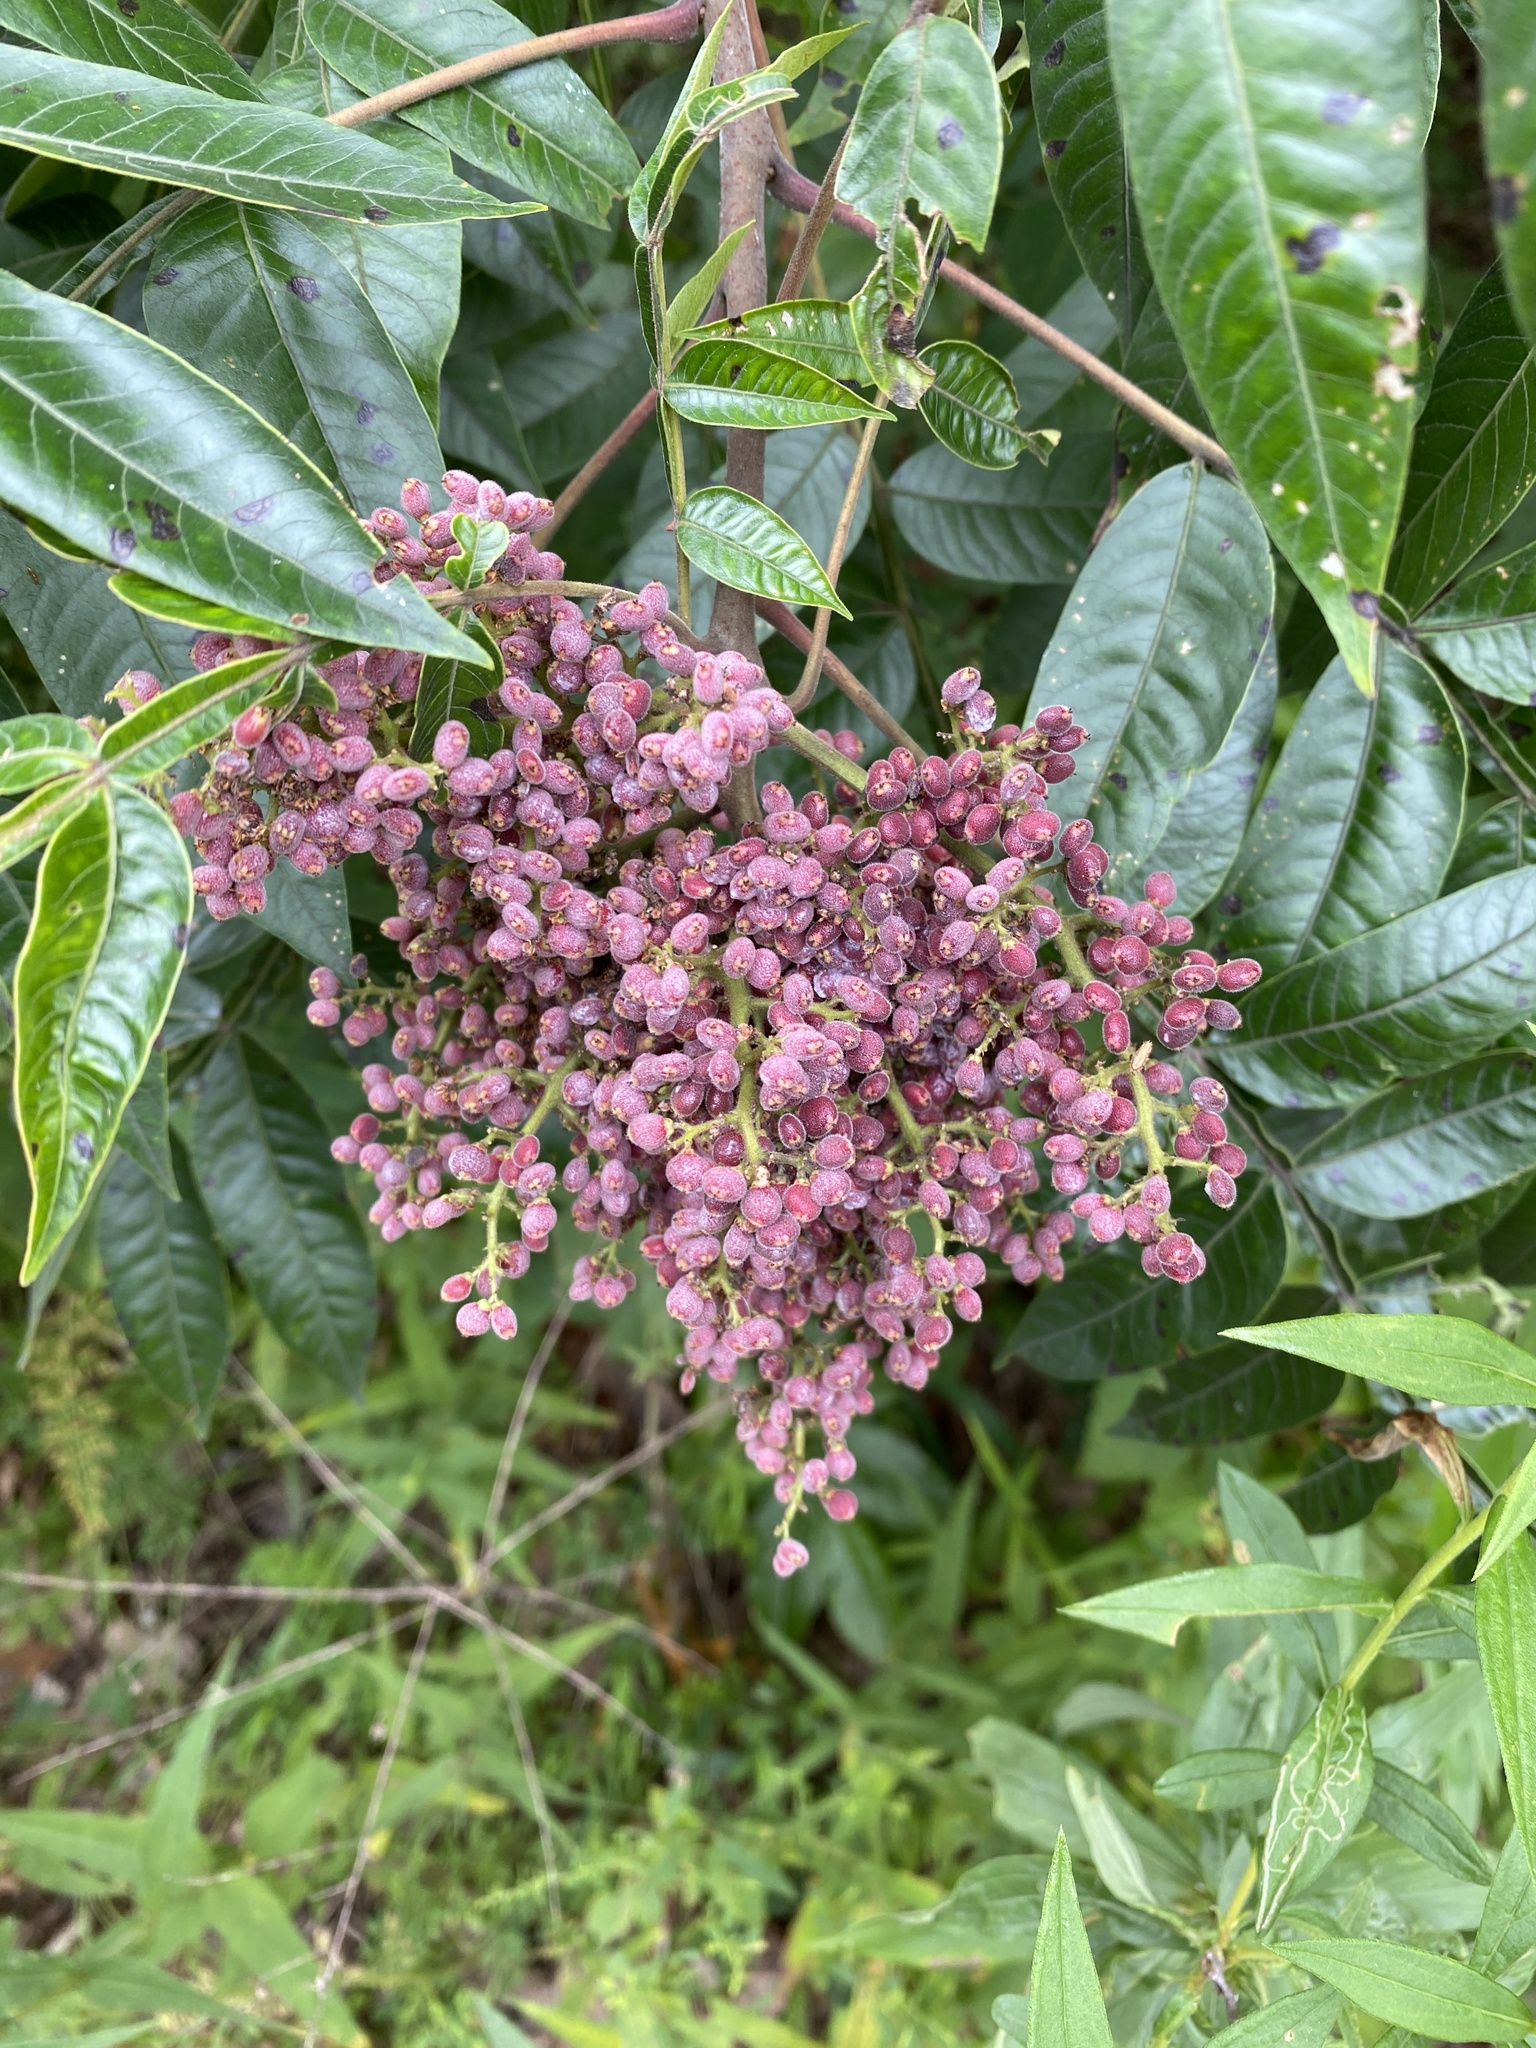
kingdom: Plantae
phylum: Tracheophyta
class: Magnoliopsida
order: Sapindales
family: Anacardiaceae
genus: Rhus
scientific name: Rhus copallina
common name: Shining sumac
